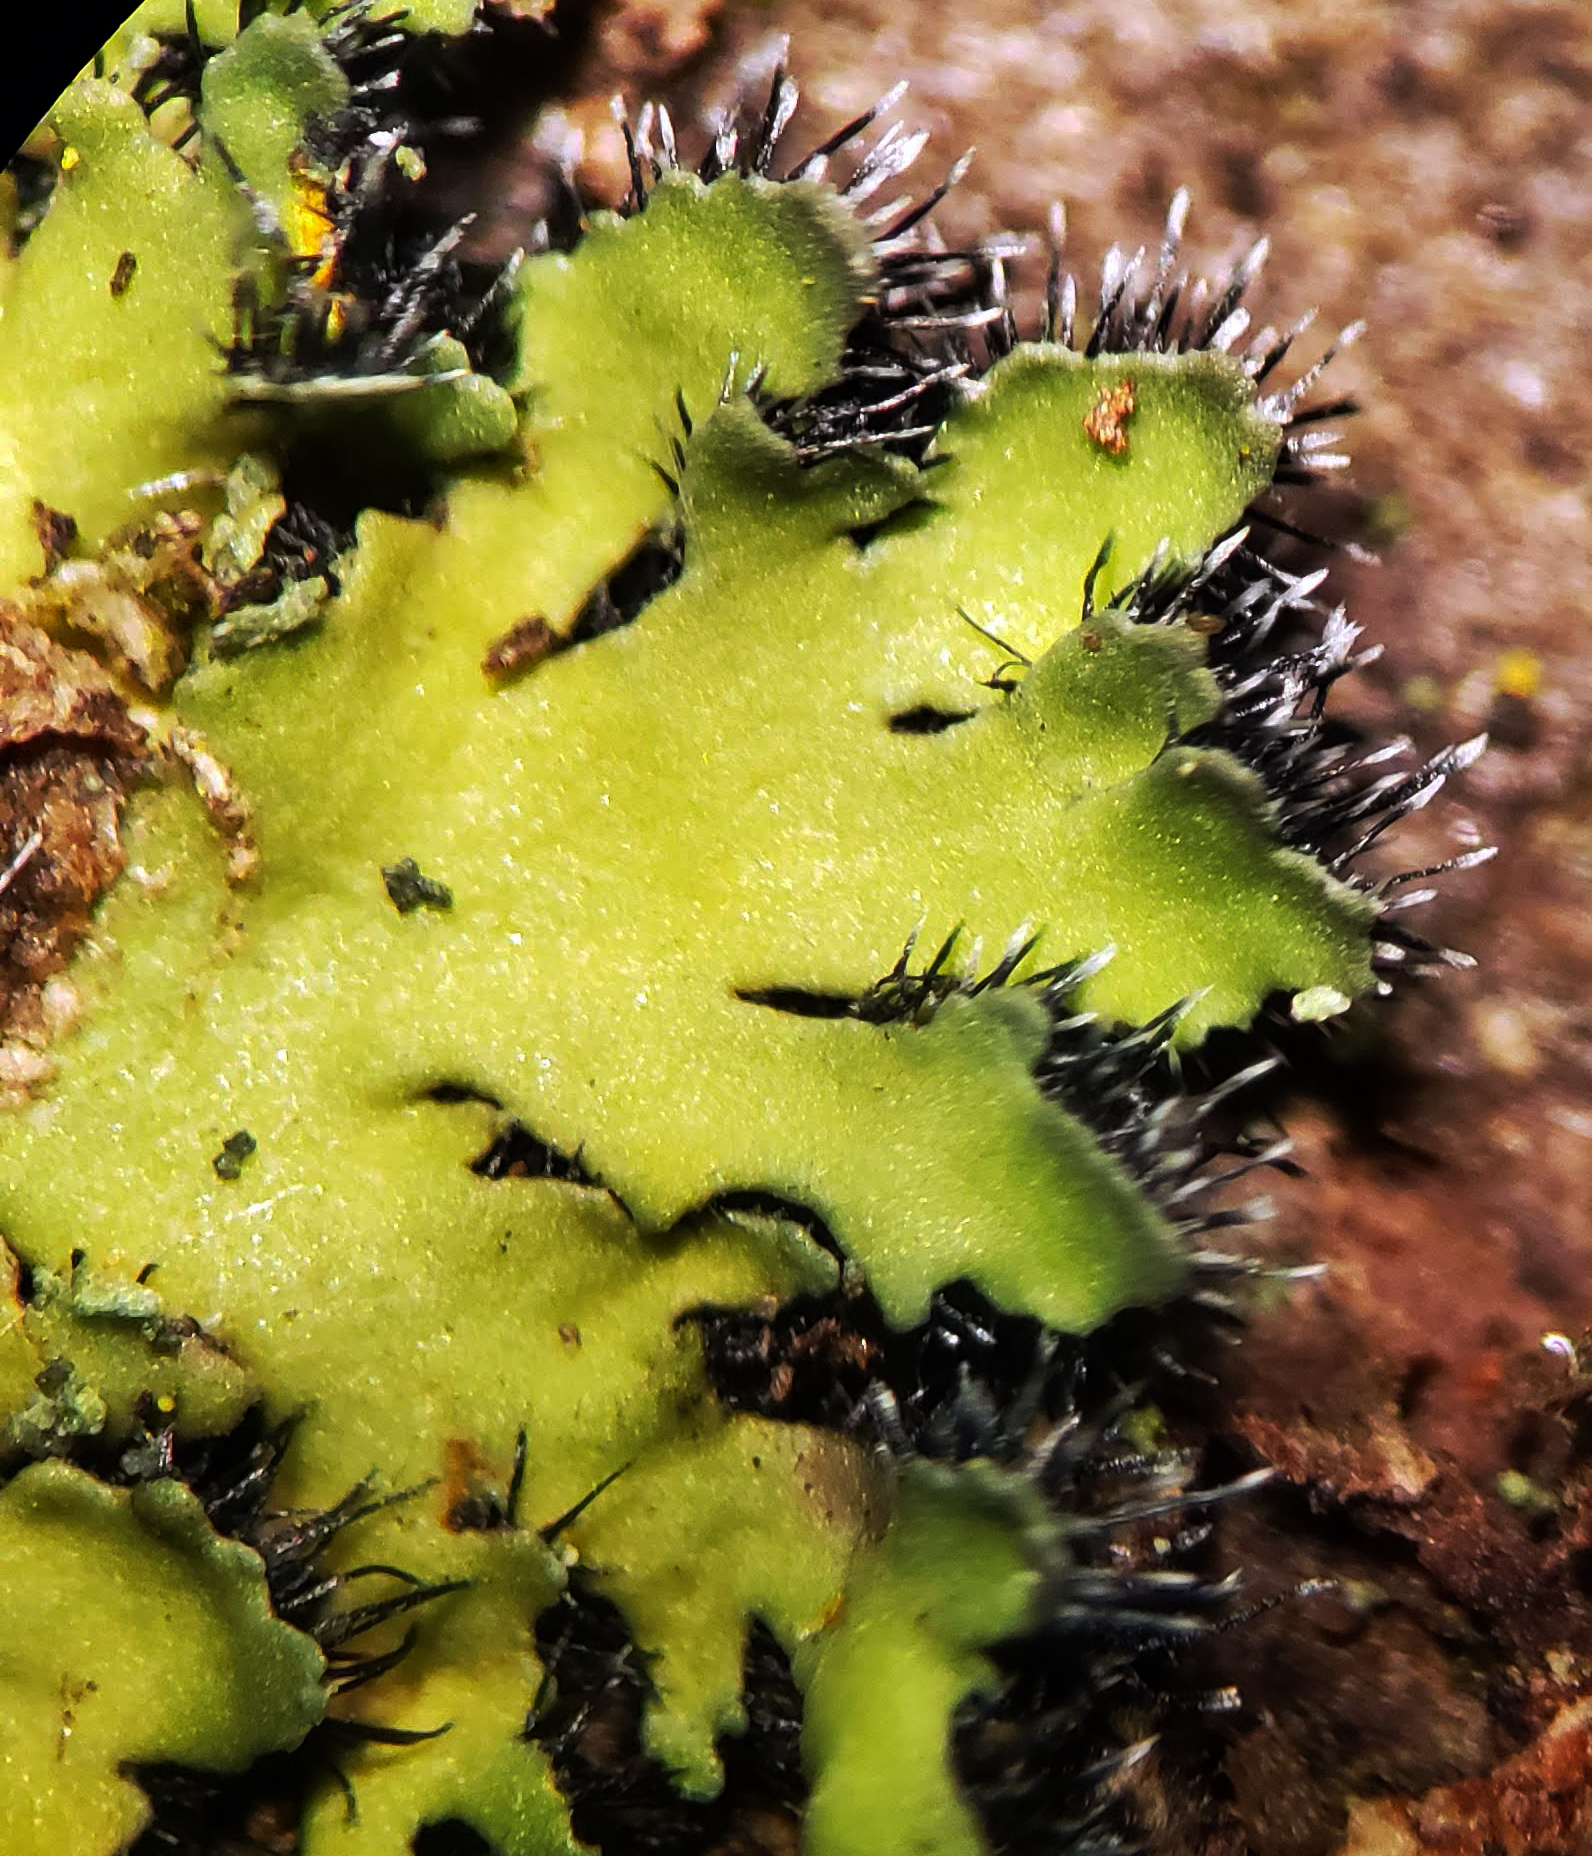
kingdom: Fungi
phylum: Ascomycota
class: Lecanoromycetes
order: Caliciales
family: Physciaceae
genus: Phaeophyscia
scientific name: Phaeophyscia rubropulchra
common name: Orange-cored shadow lichen
